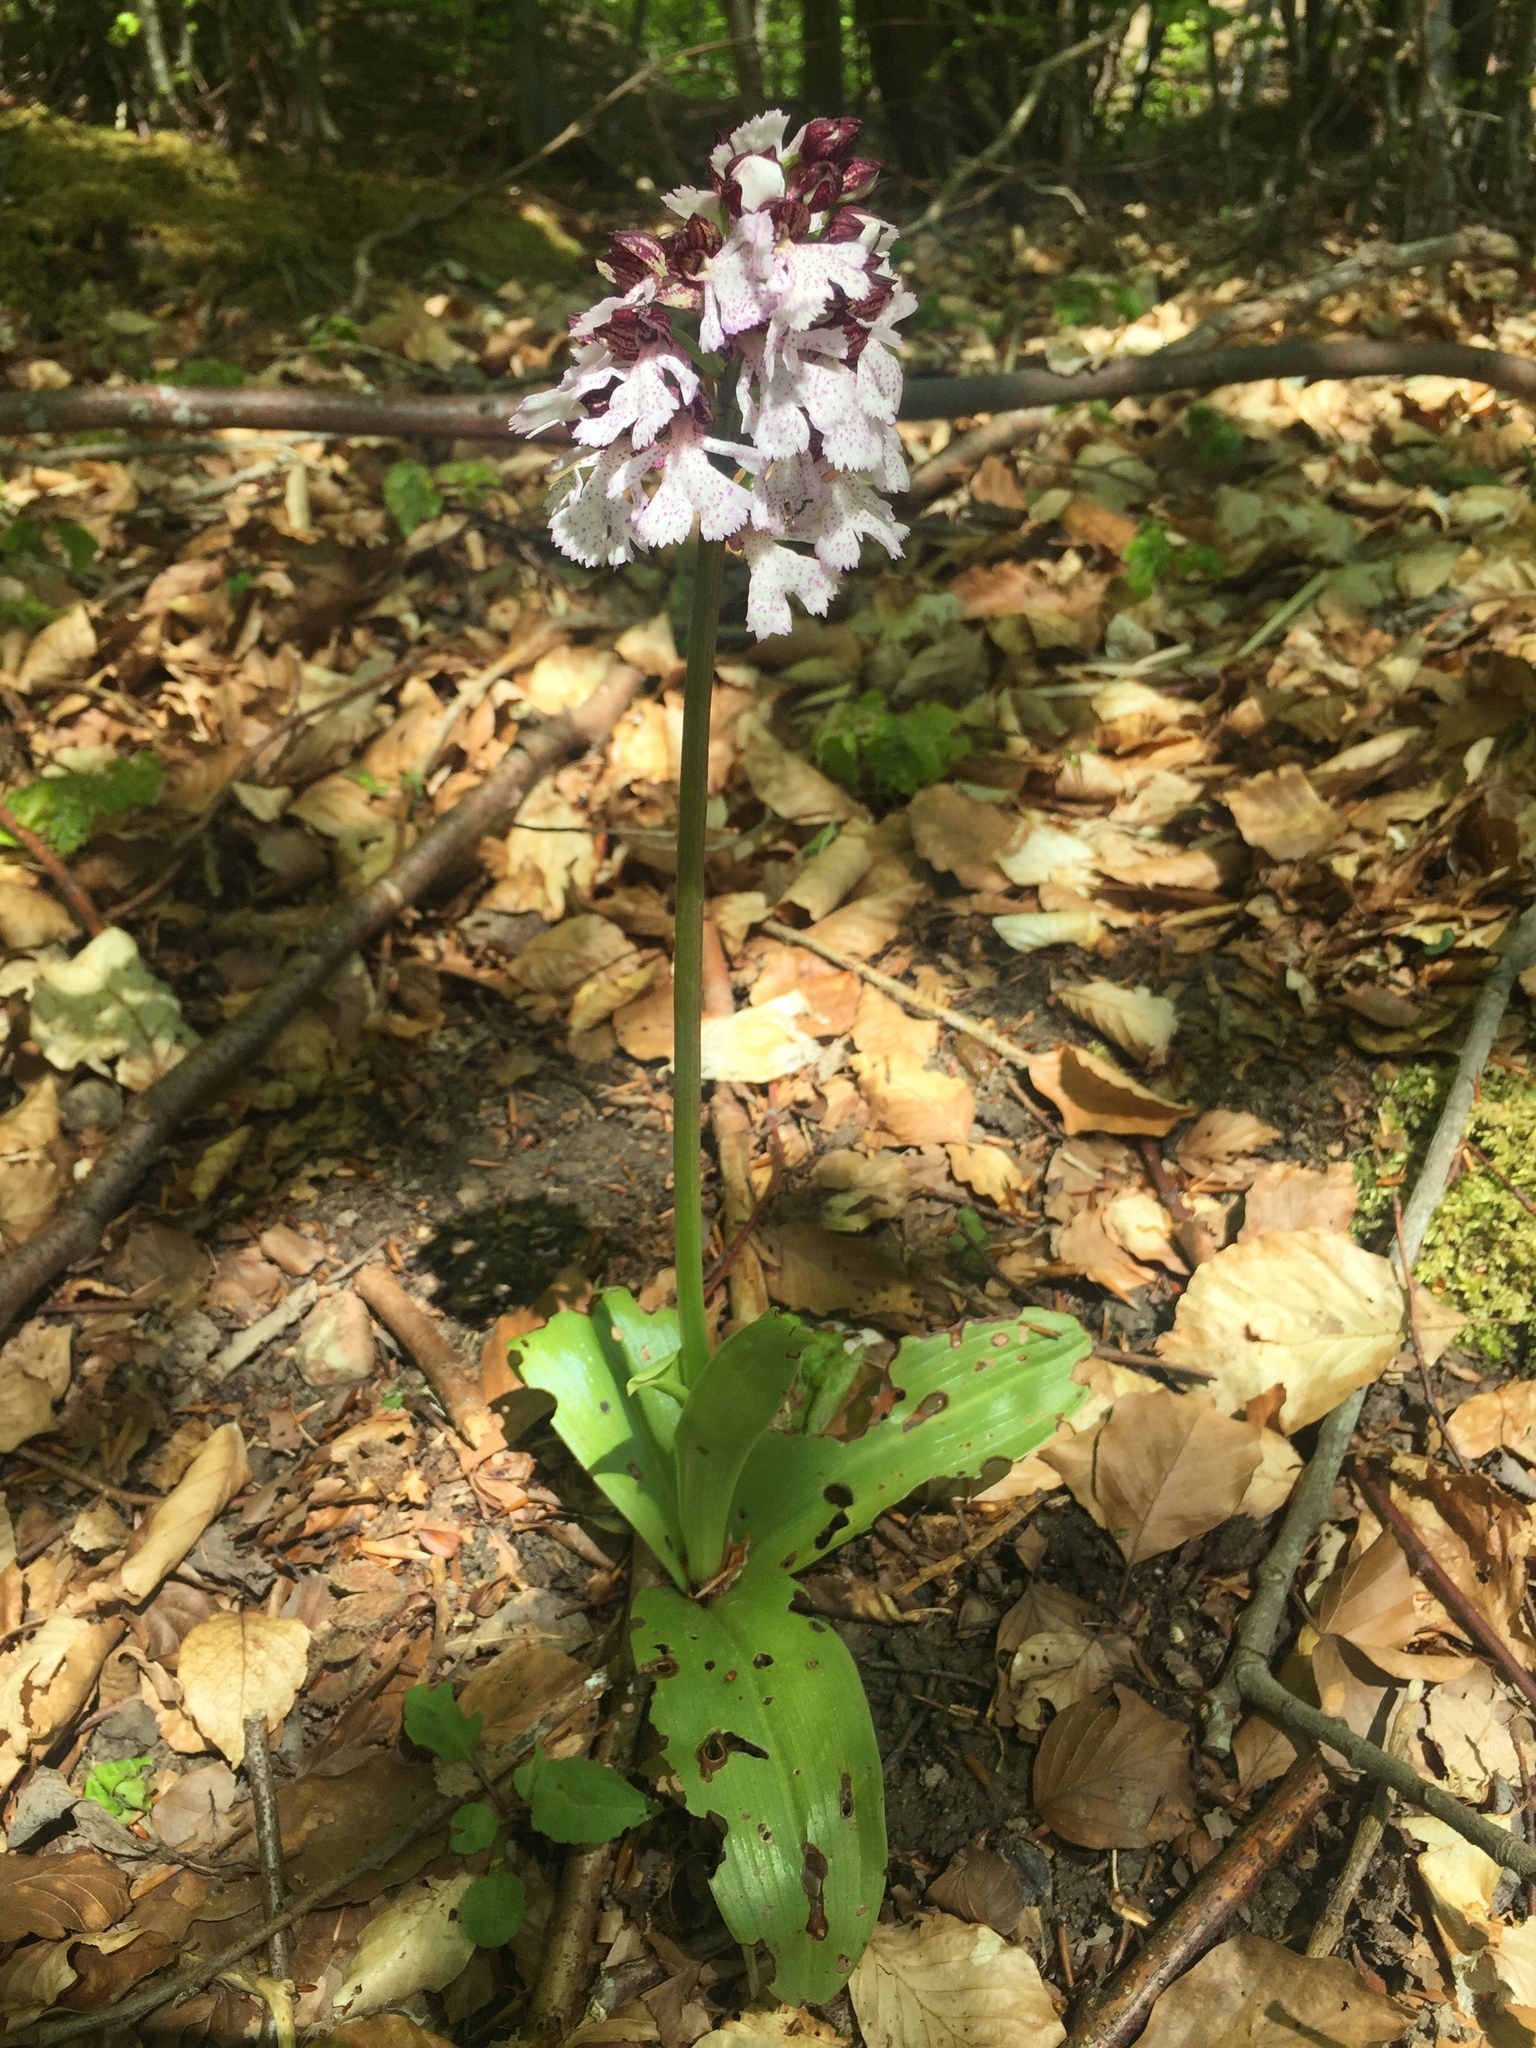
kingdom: Plantae
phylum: Tracheophyta
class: Liliopsida
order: Asparagales
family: Orchidaceae
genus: Orchis
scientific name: Orchis purpurea
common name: Lady orchid
